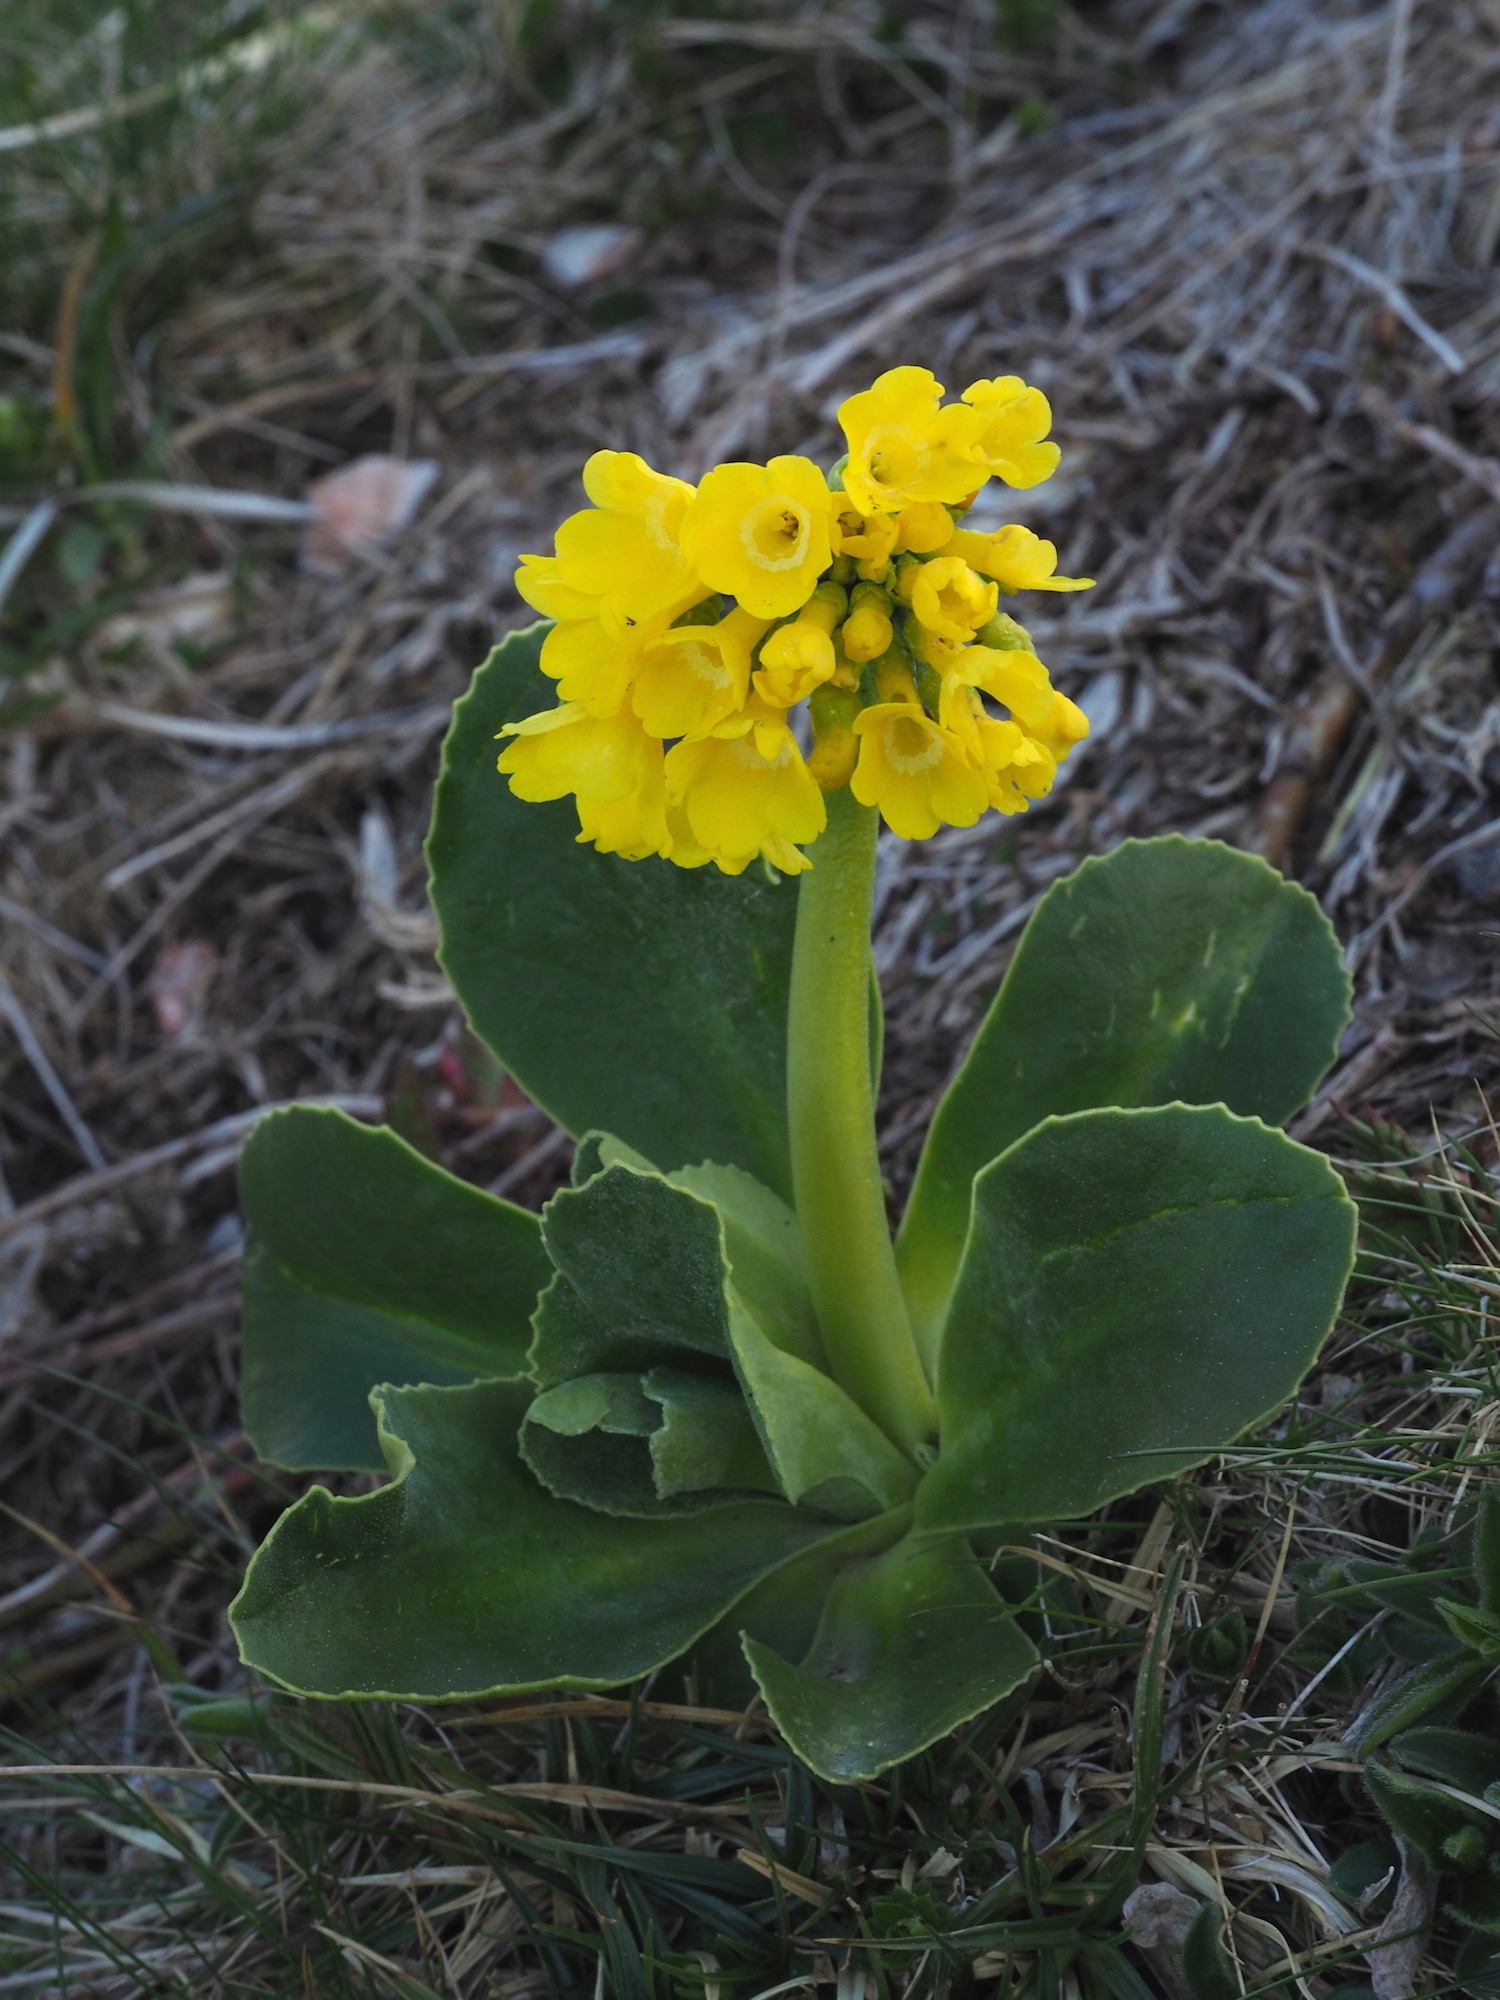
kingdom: Plantae
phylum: Tracheophyta
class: Magnoliopsida
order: Ericales
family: Primulaceae
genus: Primula
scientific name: Primula auricula
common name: Auricula
